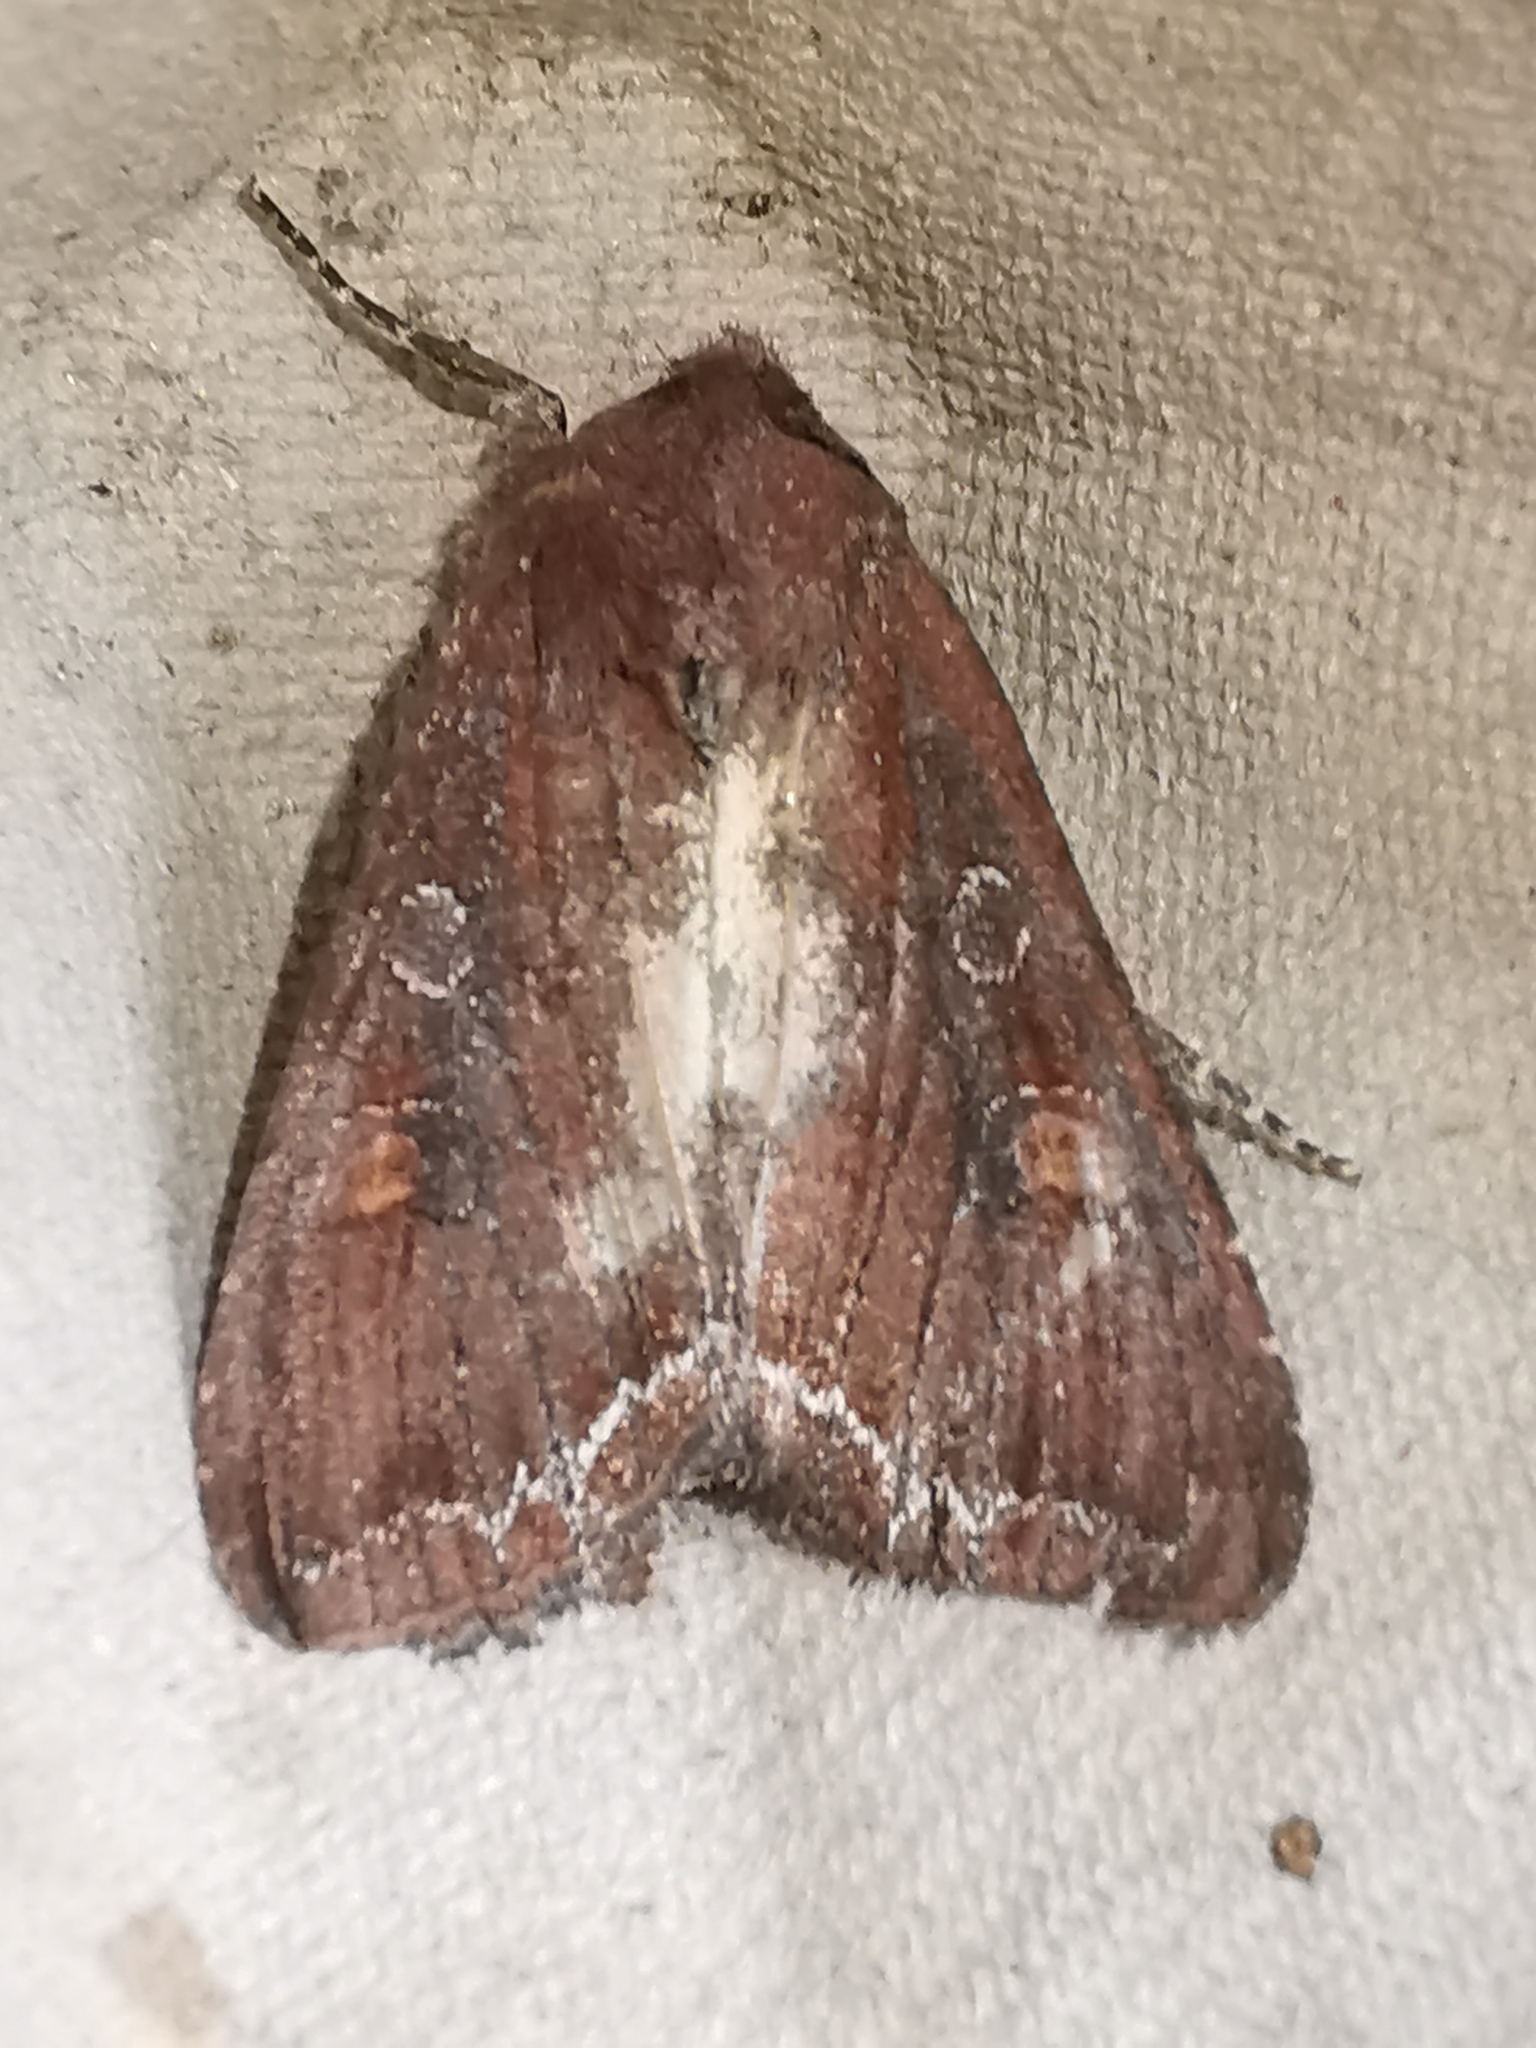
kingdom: Animalia
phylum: Arthropoda
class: Insecta
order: Lepidoptera
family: Noctuidae
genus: Lacanobia
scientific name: Lacanobia oleracea
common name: Bright-line brown-eye
